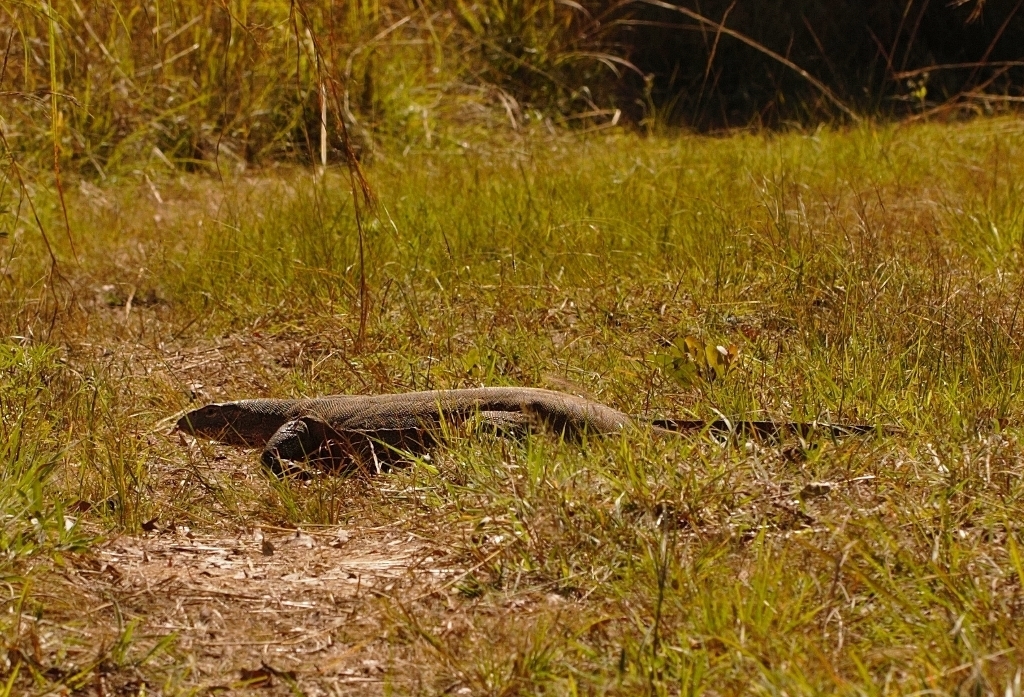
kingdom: Animalia
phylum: Chordata
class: Squamata
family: Varanidae
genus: Varanus
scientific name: Varanus niloticus
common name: Nile monitor
